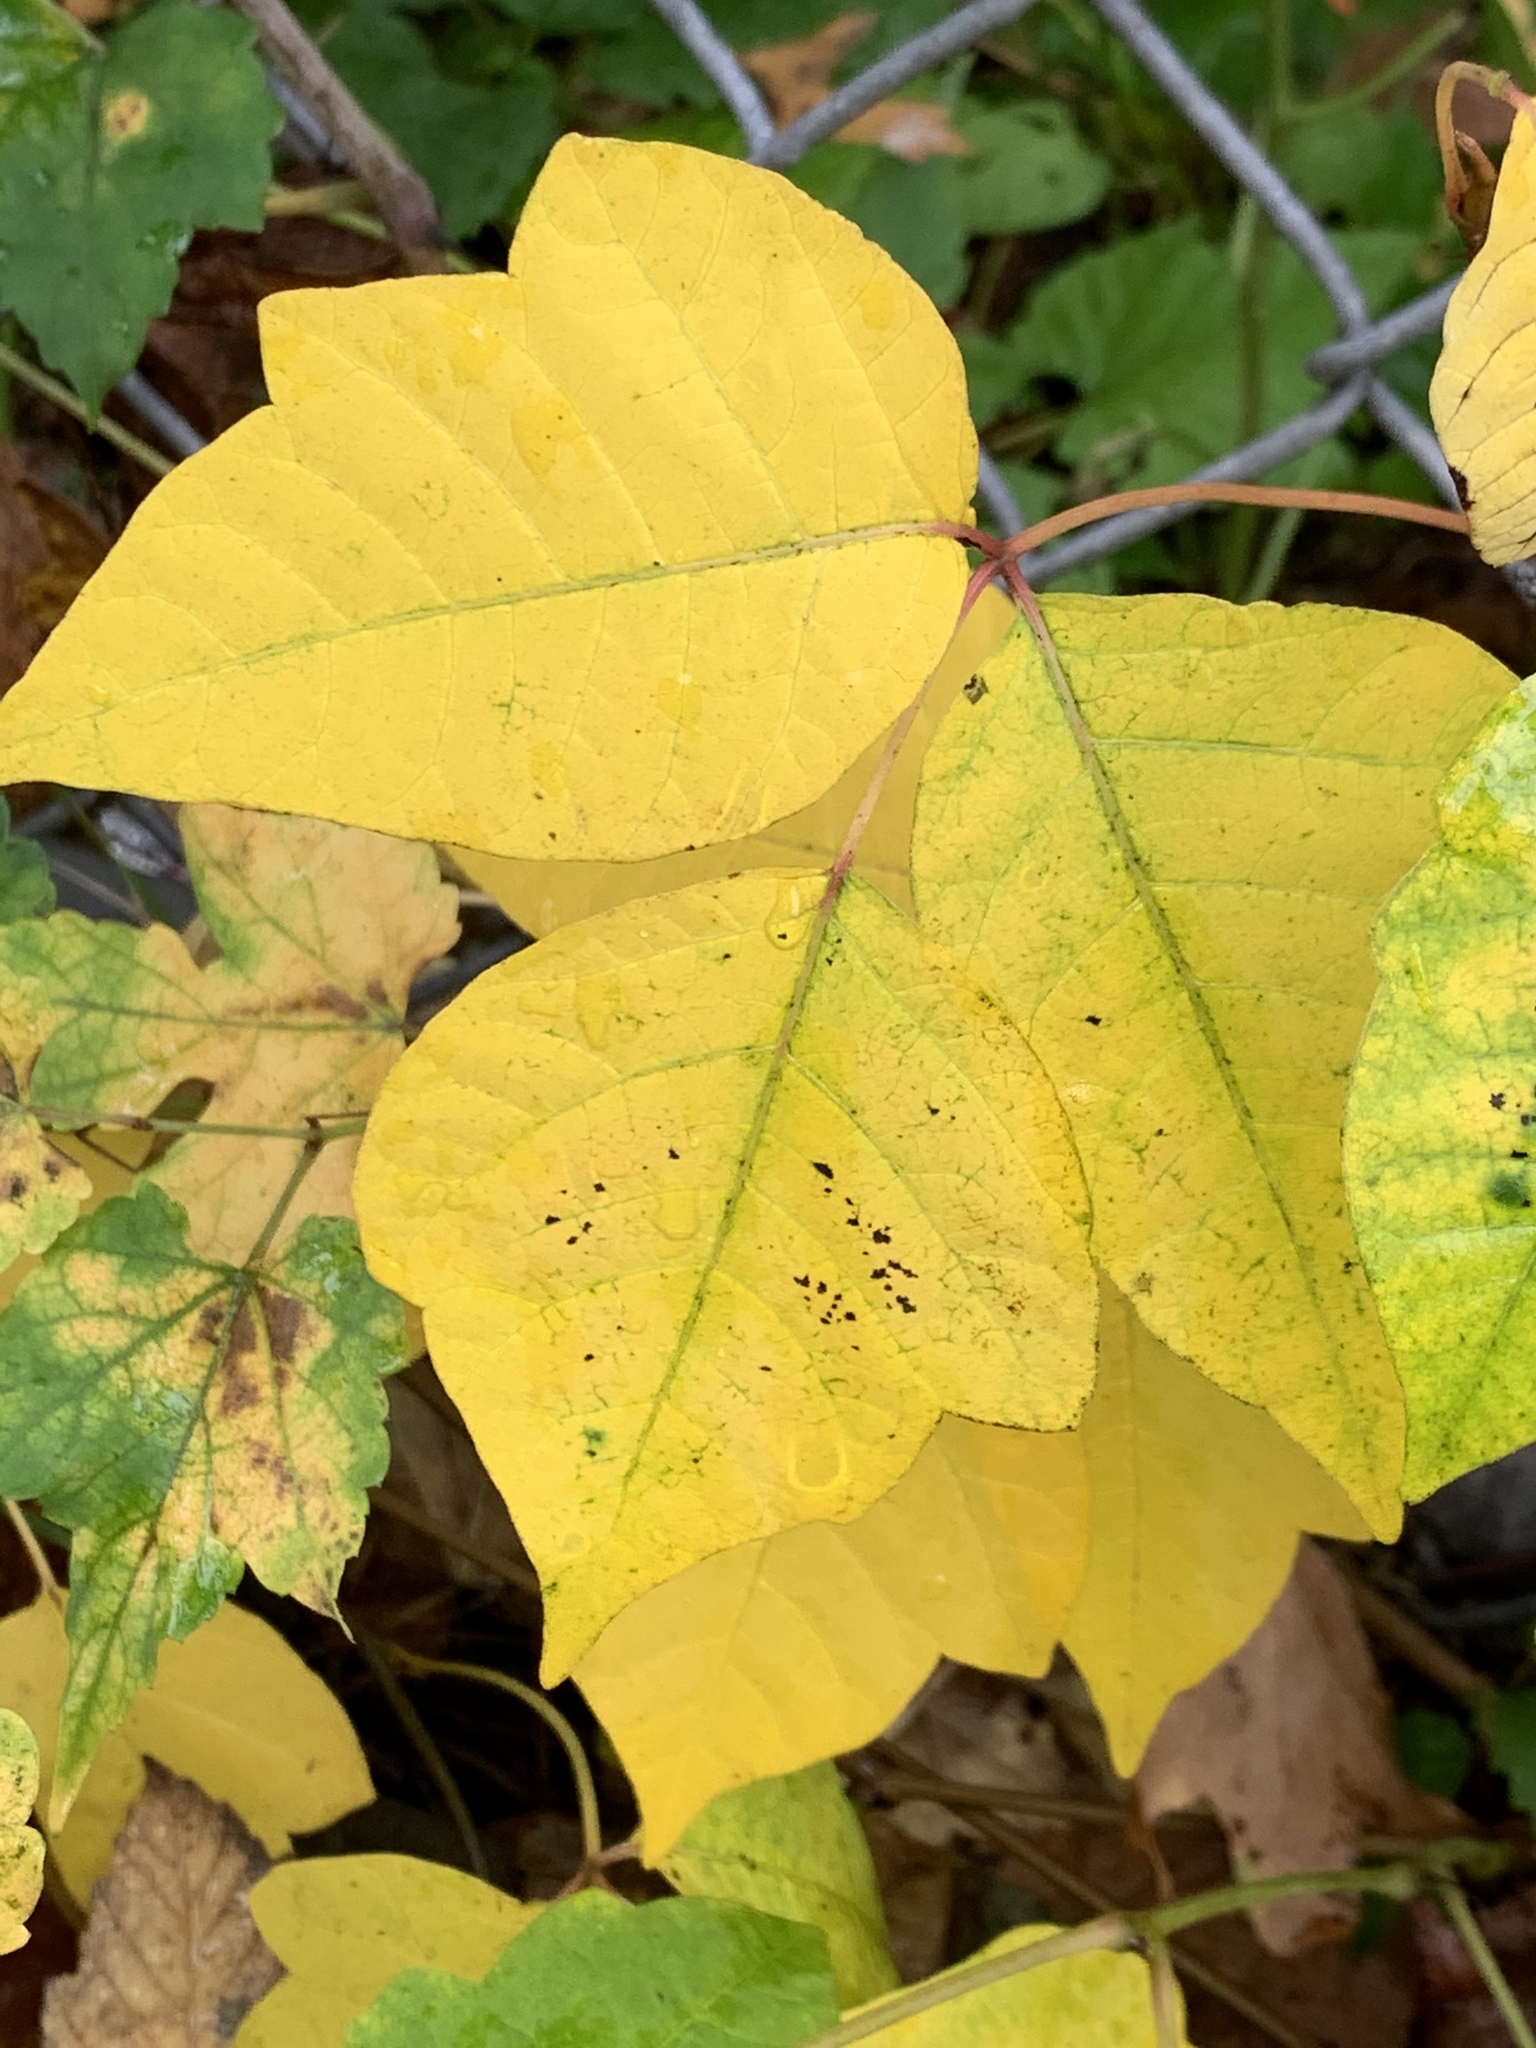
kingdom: Plantae
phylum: Tracheophyta
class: Magnoliopsida
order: Sapindales
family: Anacardiaceae
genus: Toxicodendron
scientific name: Toxicodendron radicans
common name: Poison ivy
